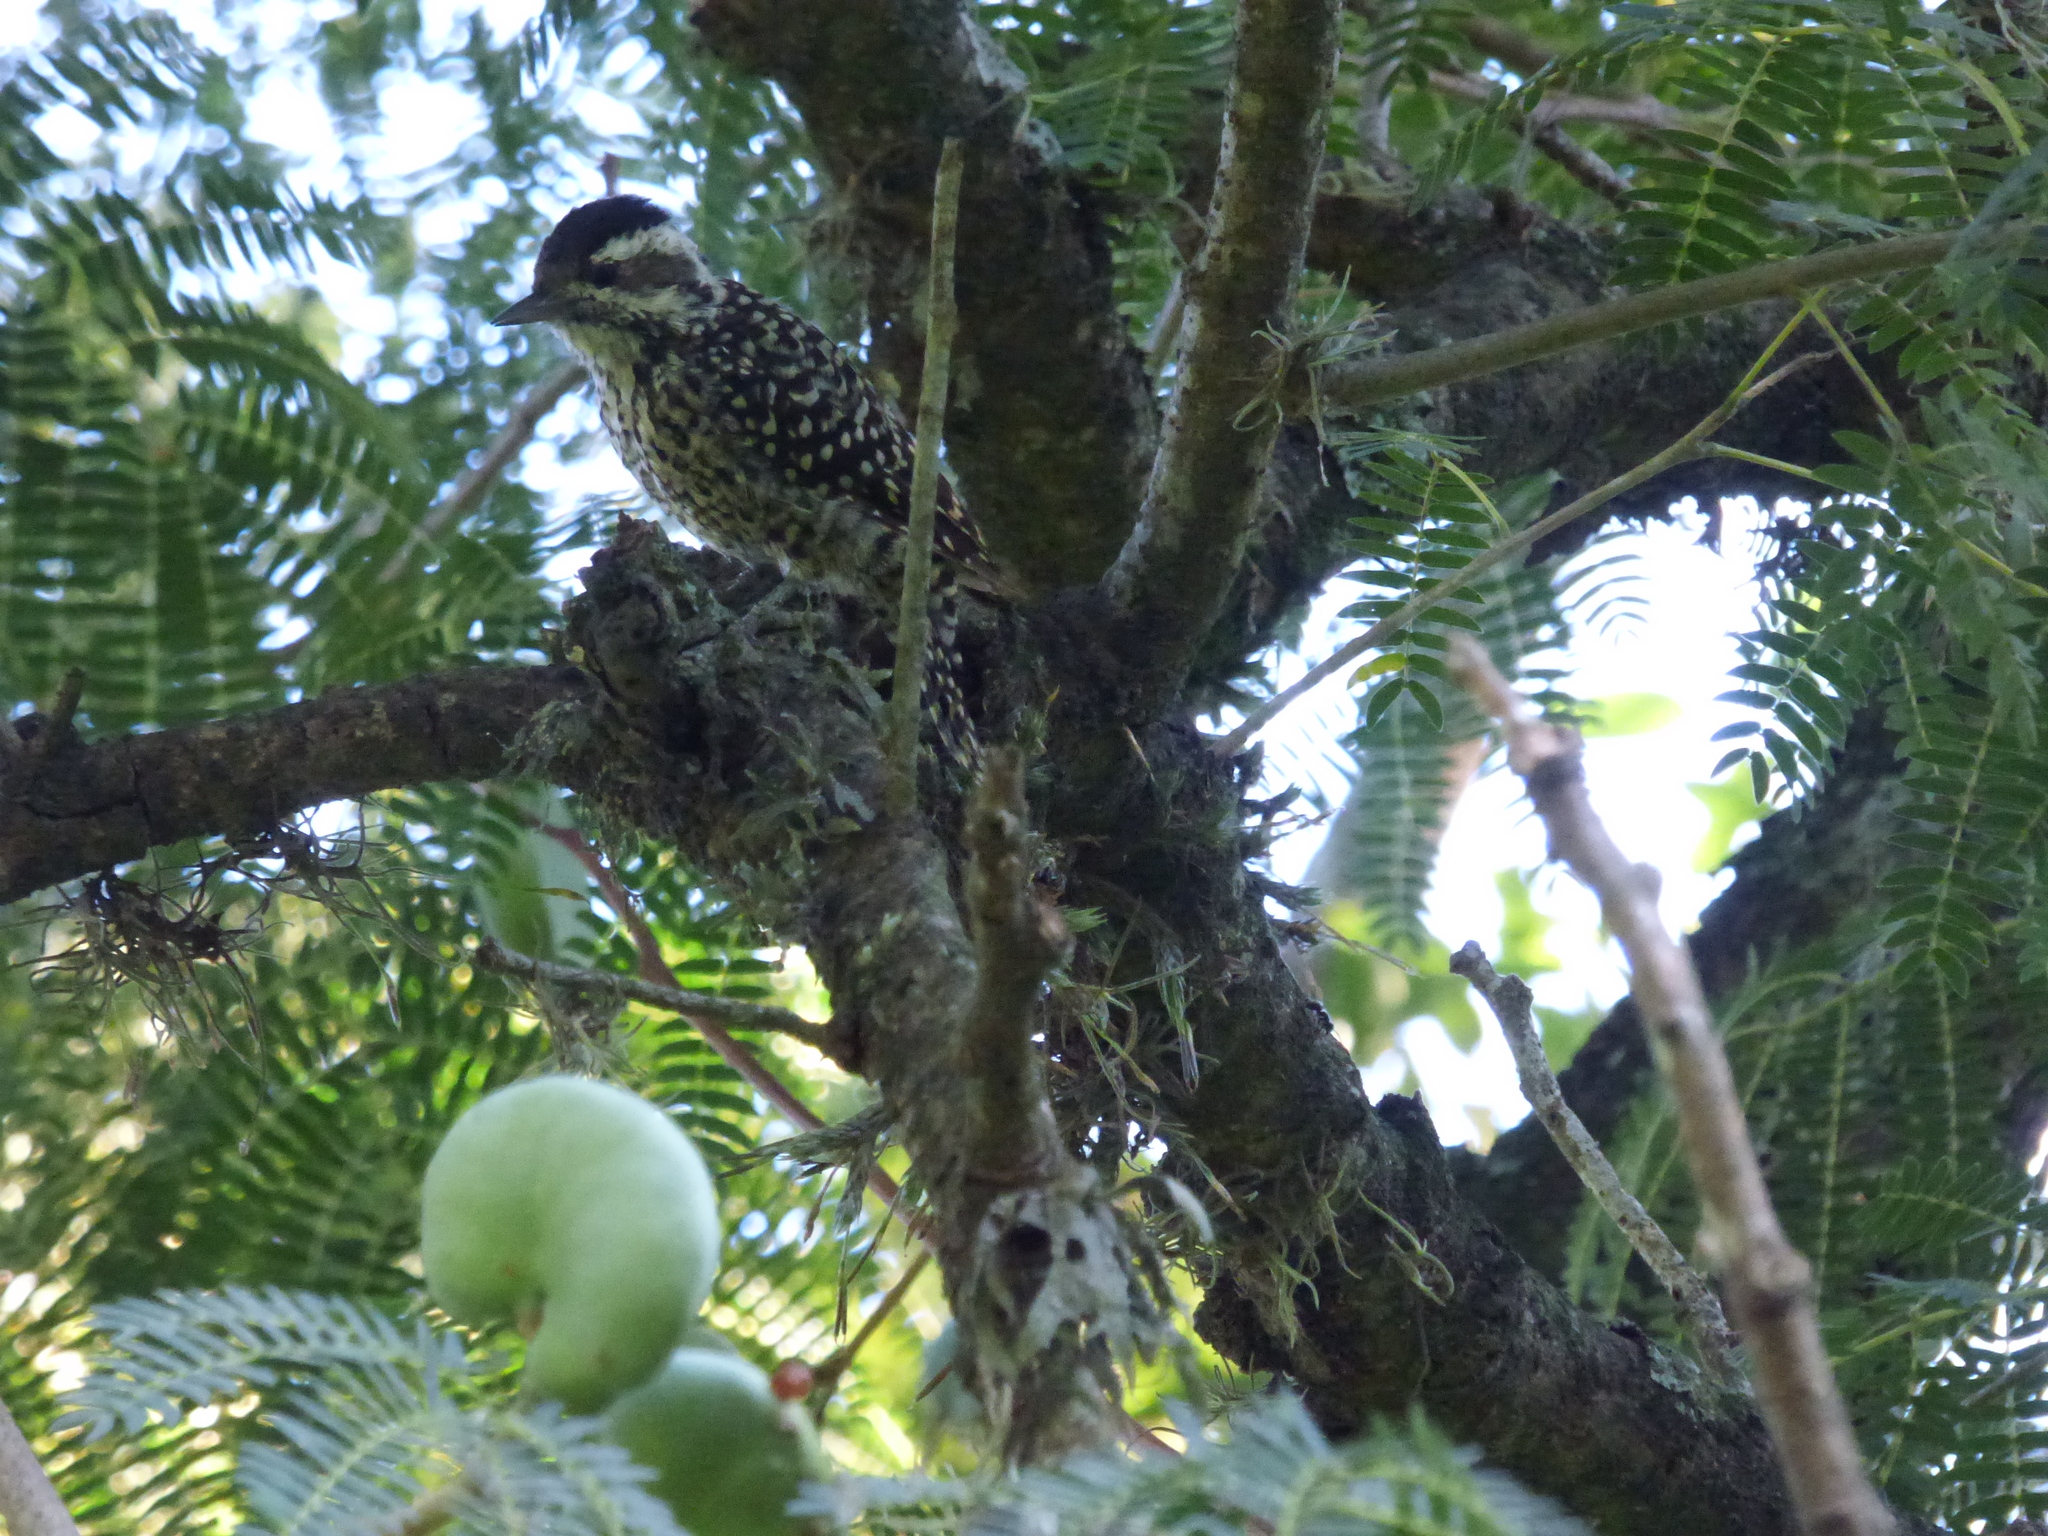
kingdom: Animalia
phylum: Chordata
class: Aves
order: Piciformes
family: Picidae
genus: Veniliornis
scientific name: Veniliornis mixtus
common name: Checkered woodpecker
